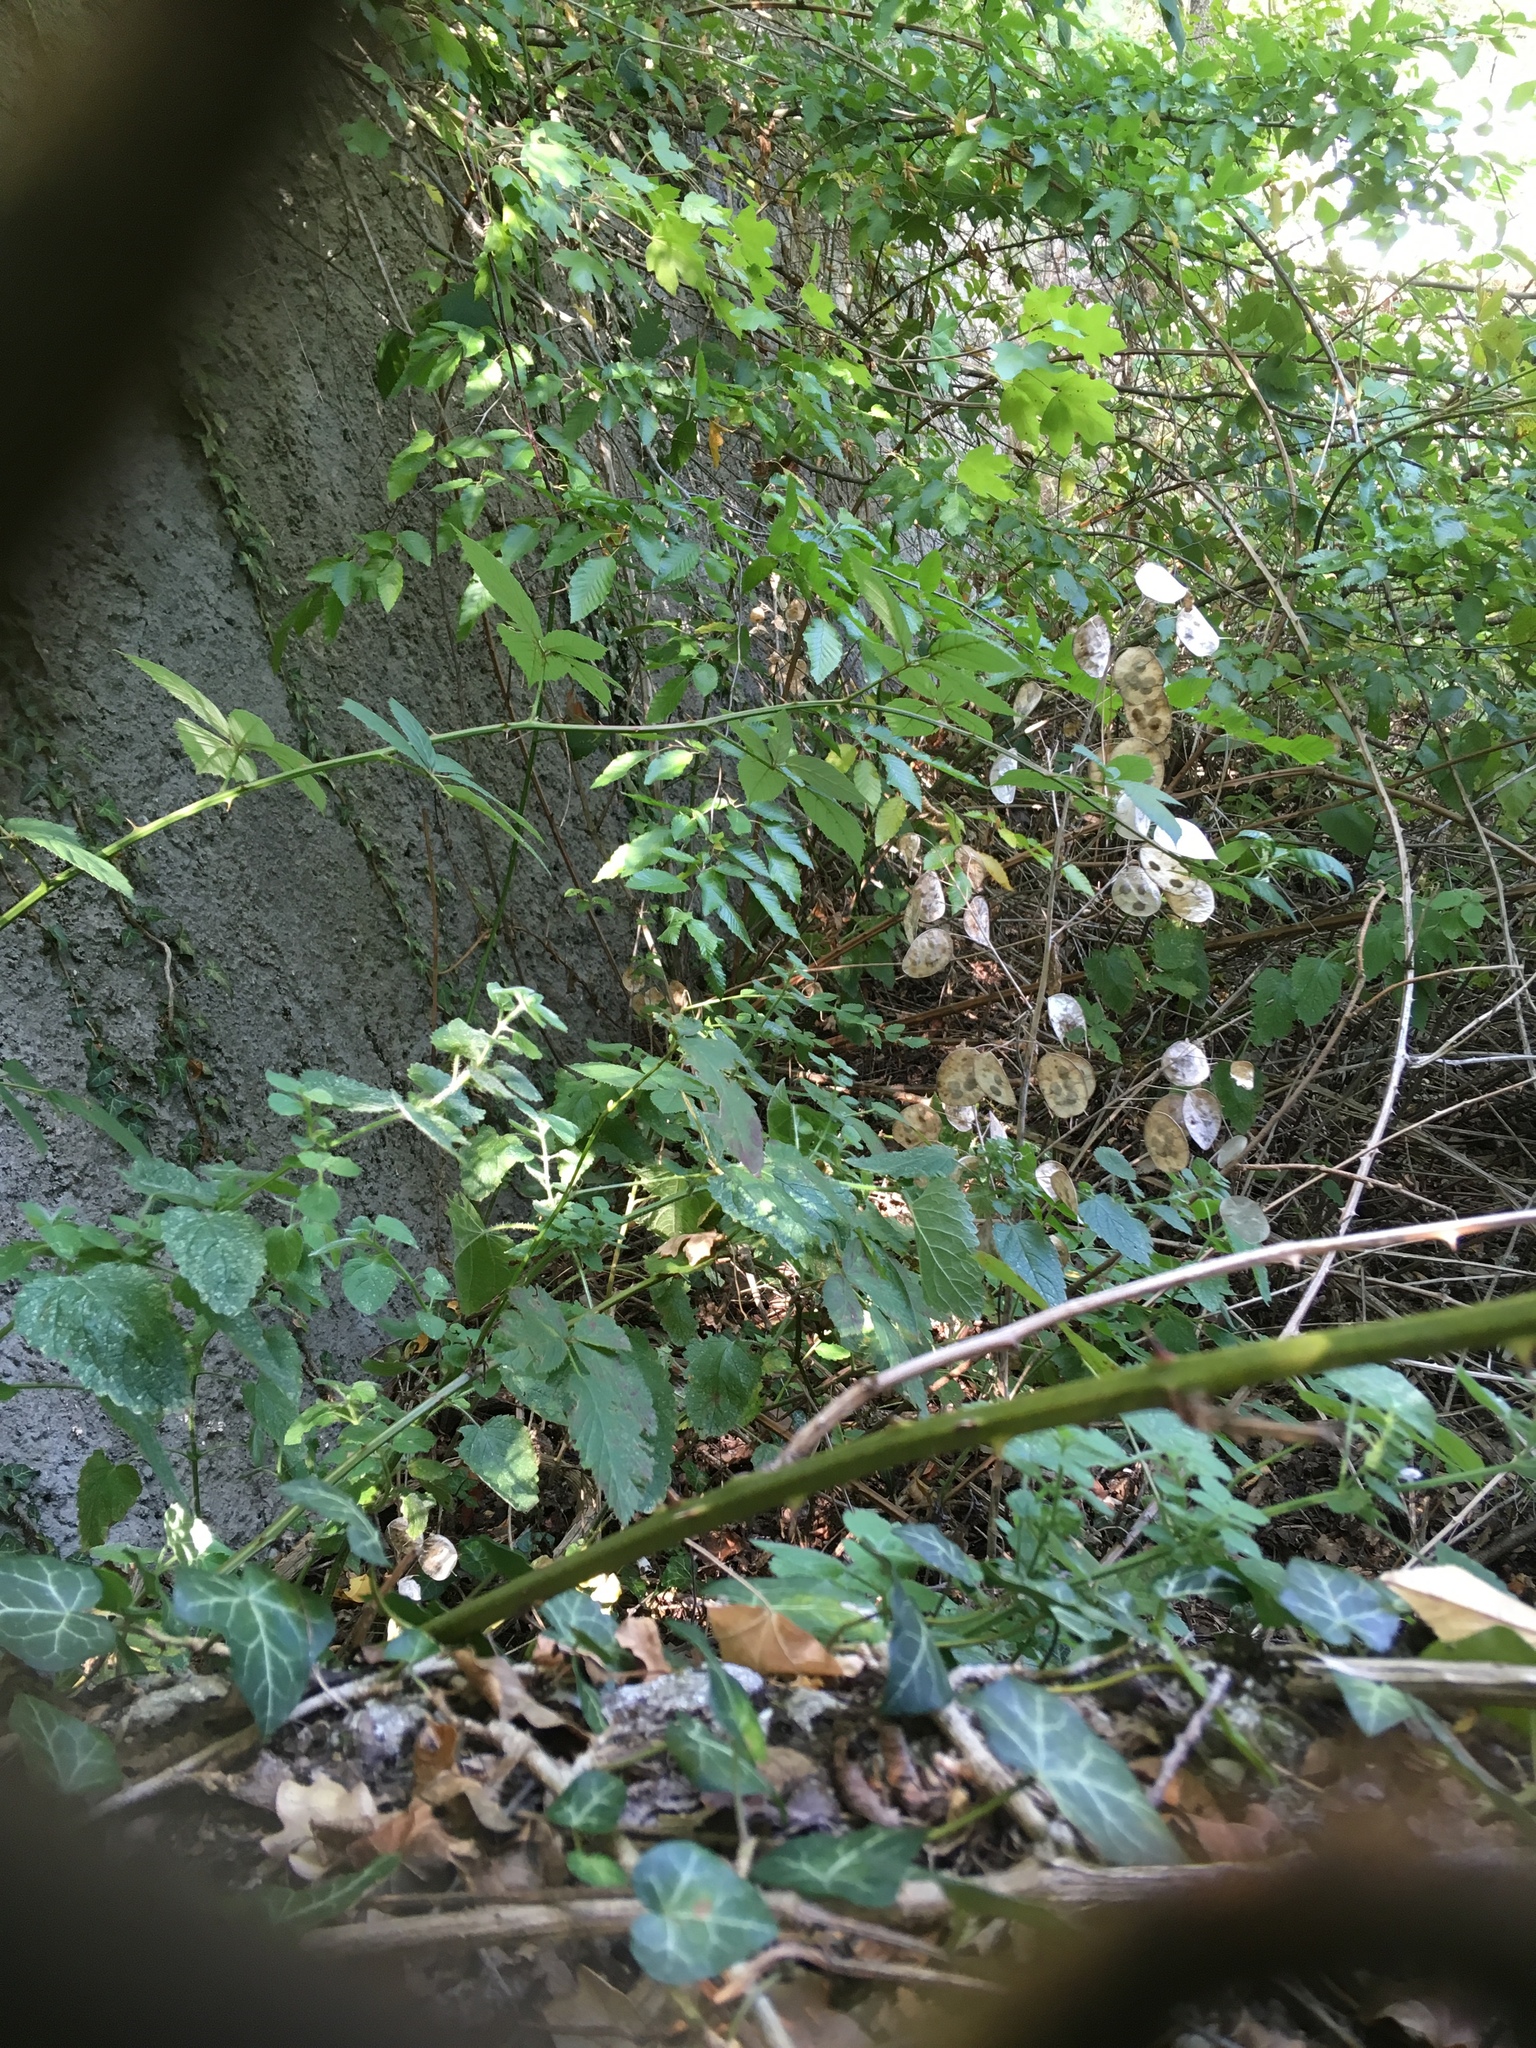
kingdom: Plantae
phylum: Tracheophyta
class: Magnoliopsida
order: Brassicales
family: Brassicaceae
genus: Lunaria
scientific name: Lunaria annua
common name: Honesty
